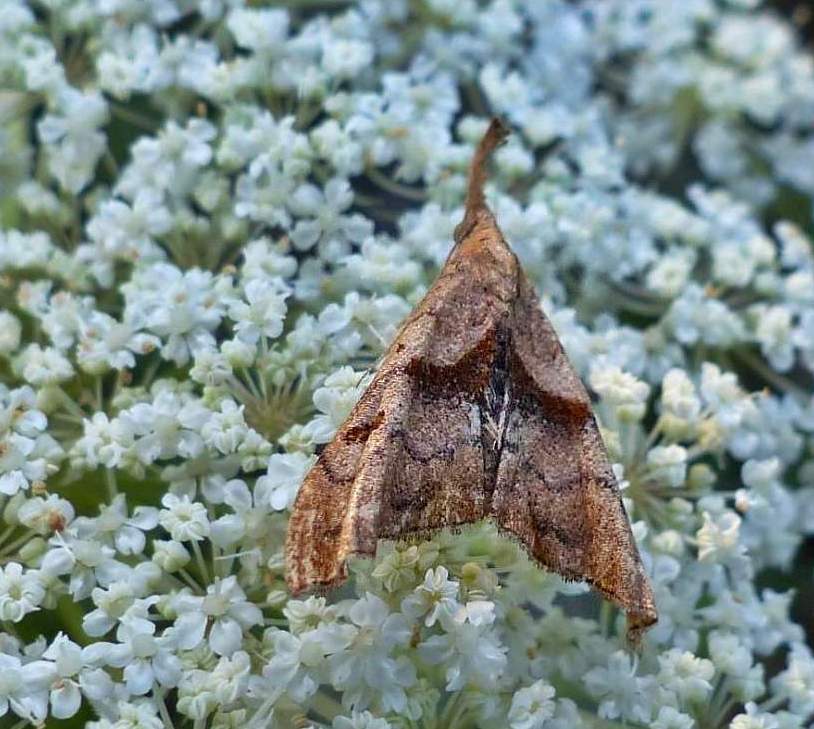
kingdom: Animalia
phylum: Arthropoda
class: Insecta
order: Lepidoptera
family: Erebidae
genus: Palthis
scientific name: Palthis angulalis
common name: Dark-spotted palthis moth
